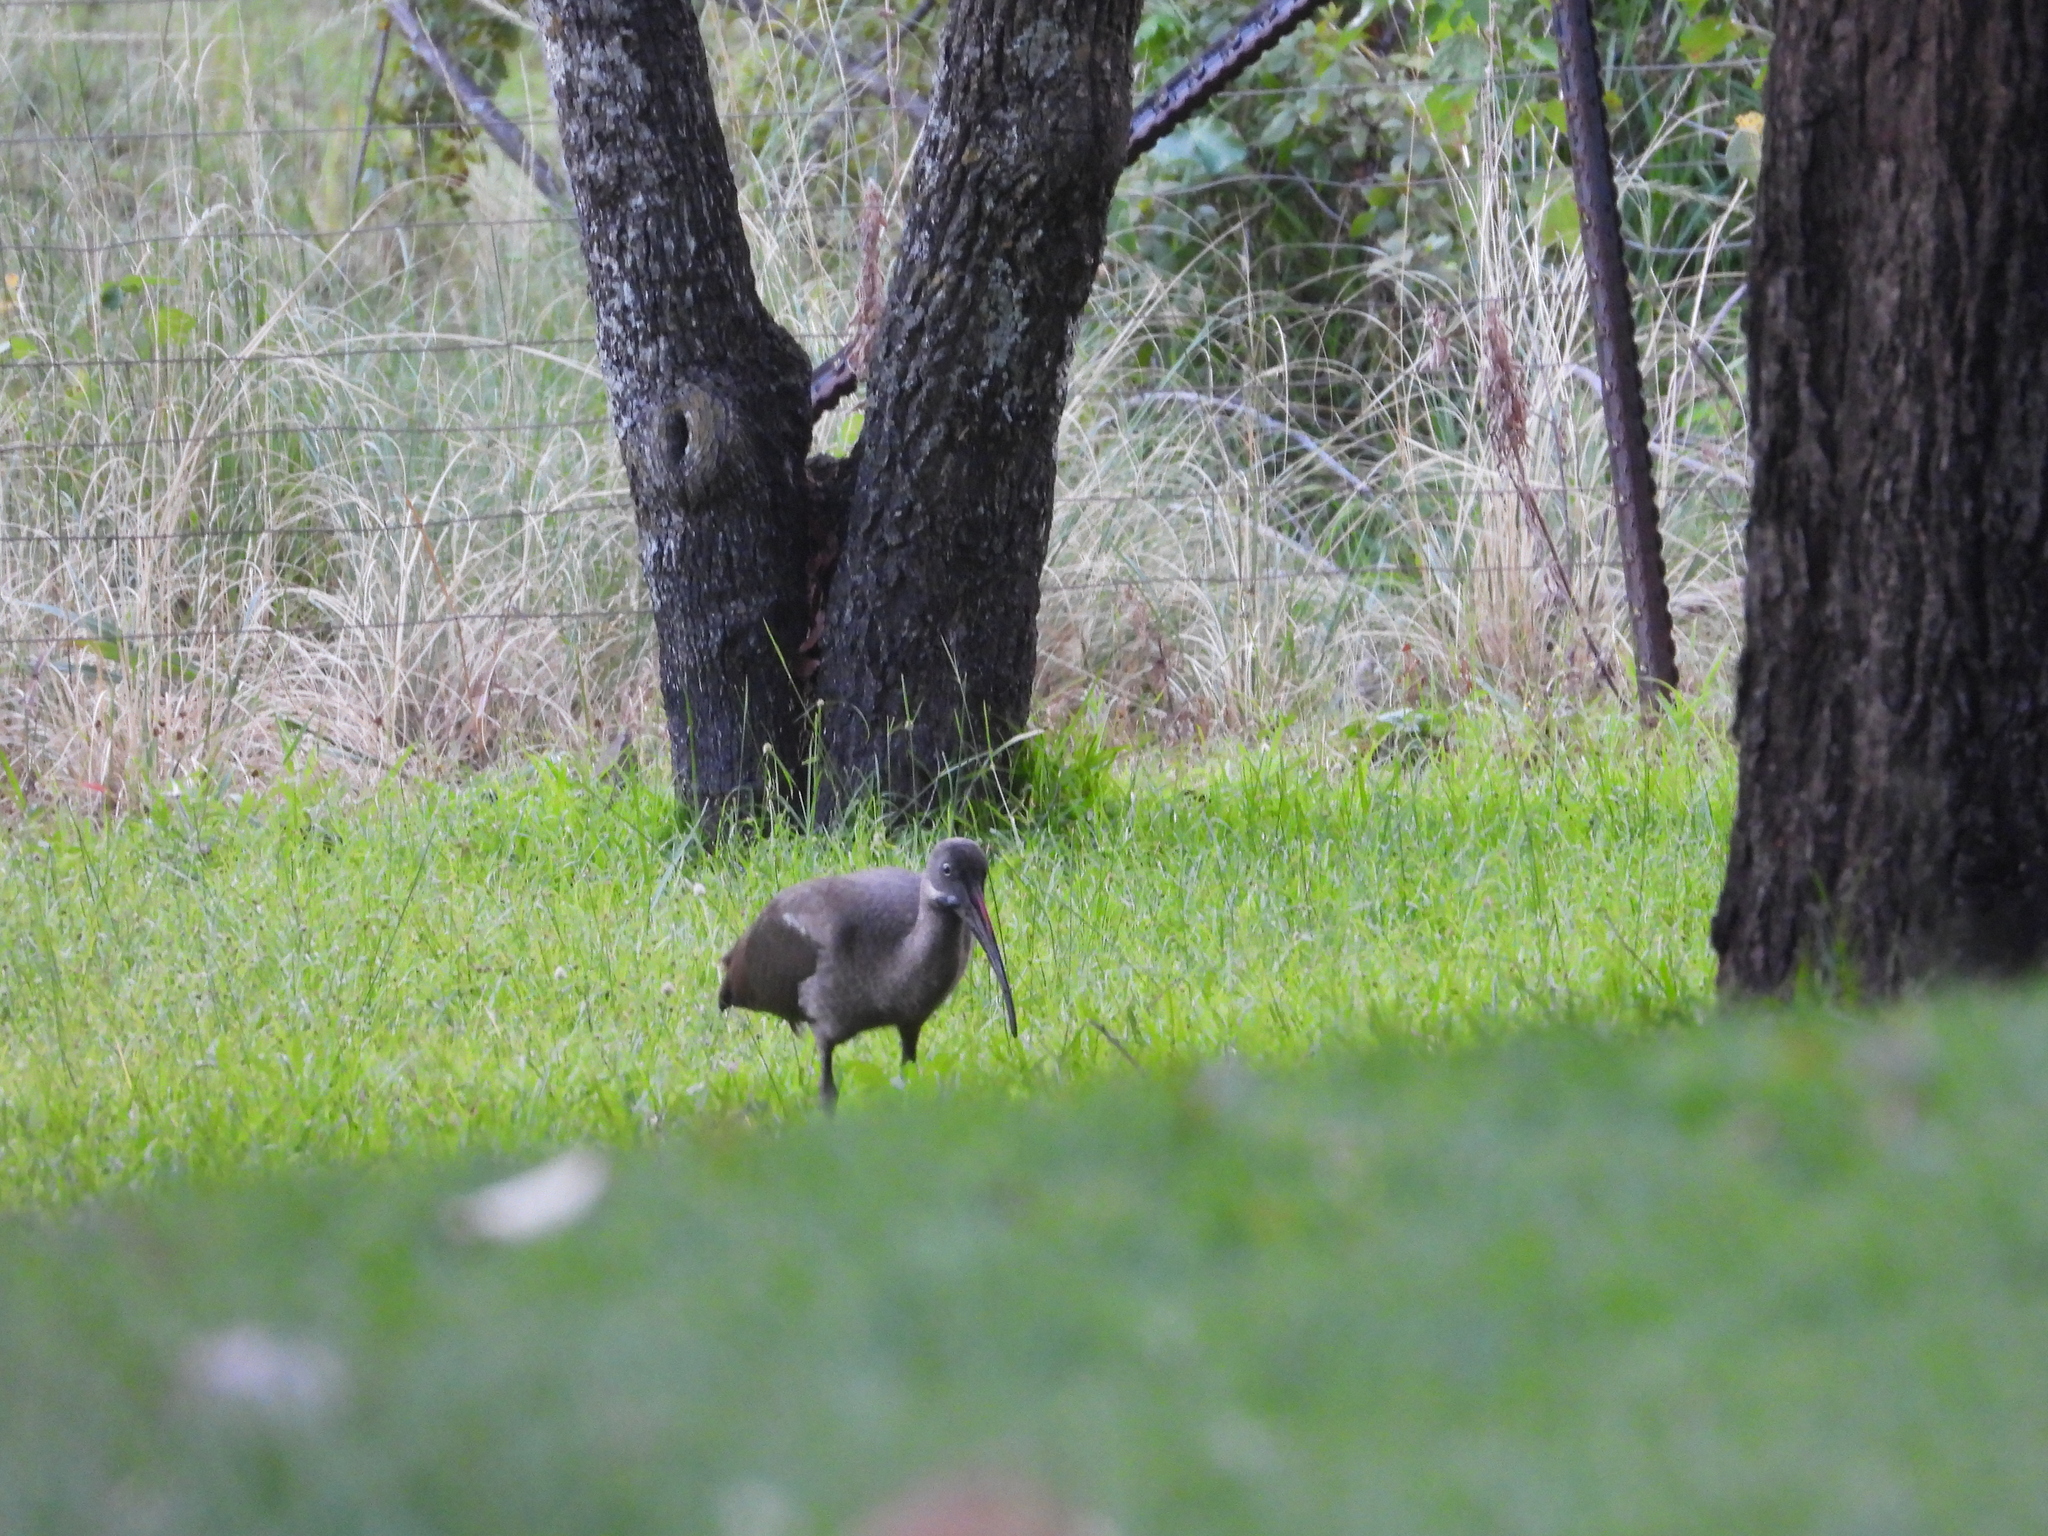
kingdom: Animalia
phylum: Chordata
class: Aves
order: Pelecaniformes
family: Threskiornithidae
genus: Bostrychia
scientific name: Bostrychia hagedash
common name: Hadada ibis
